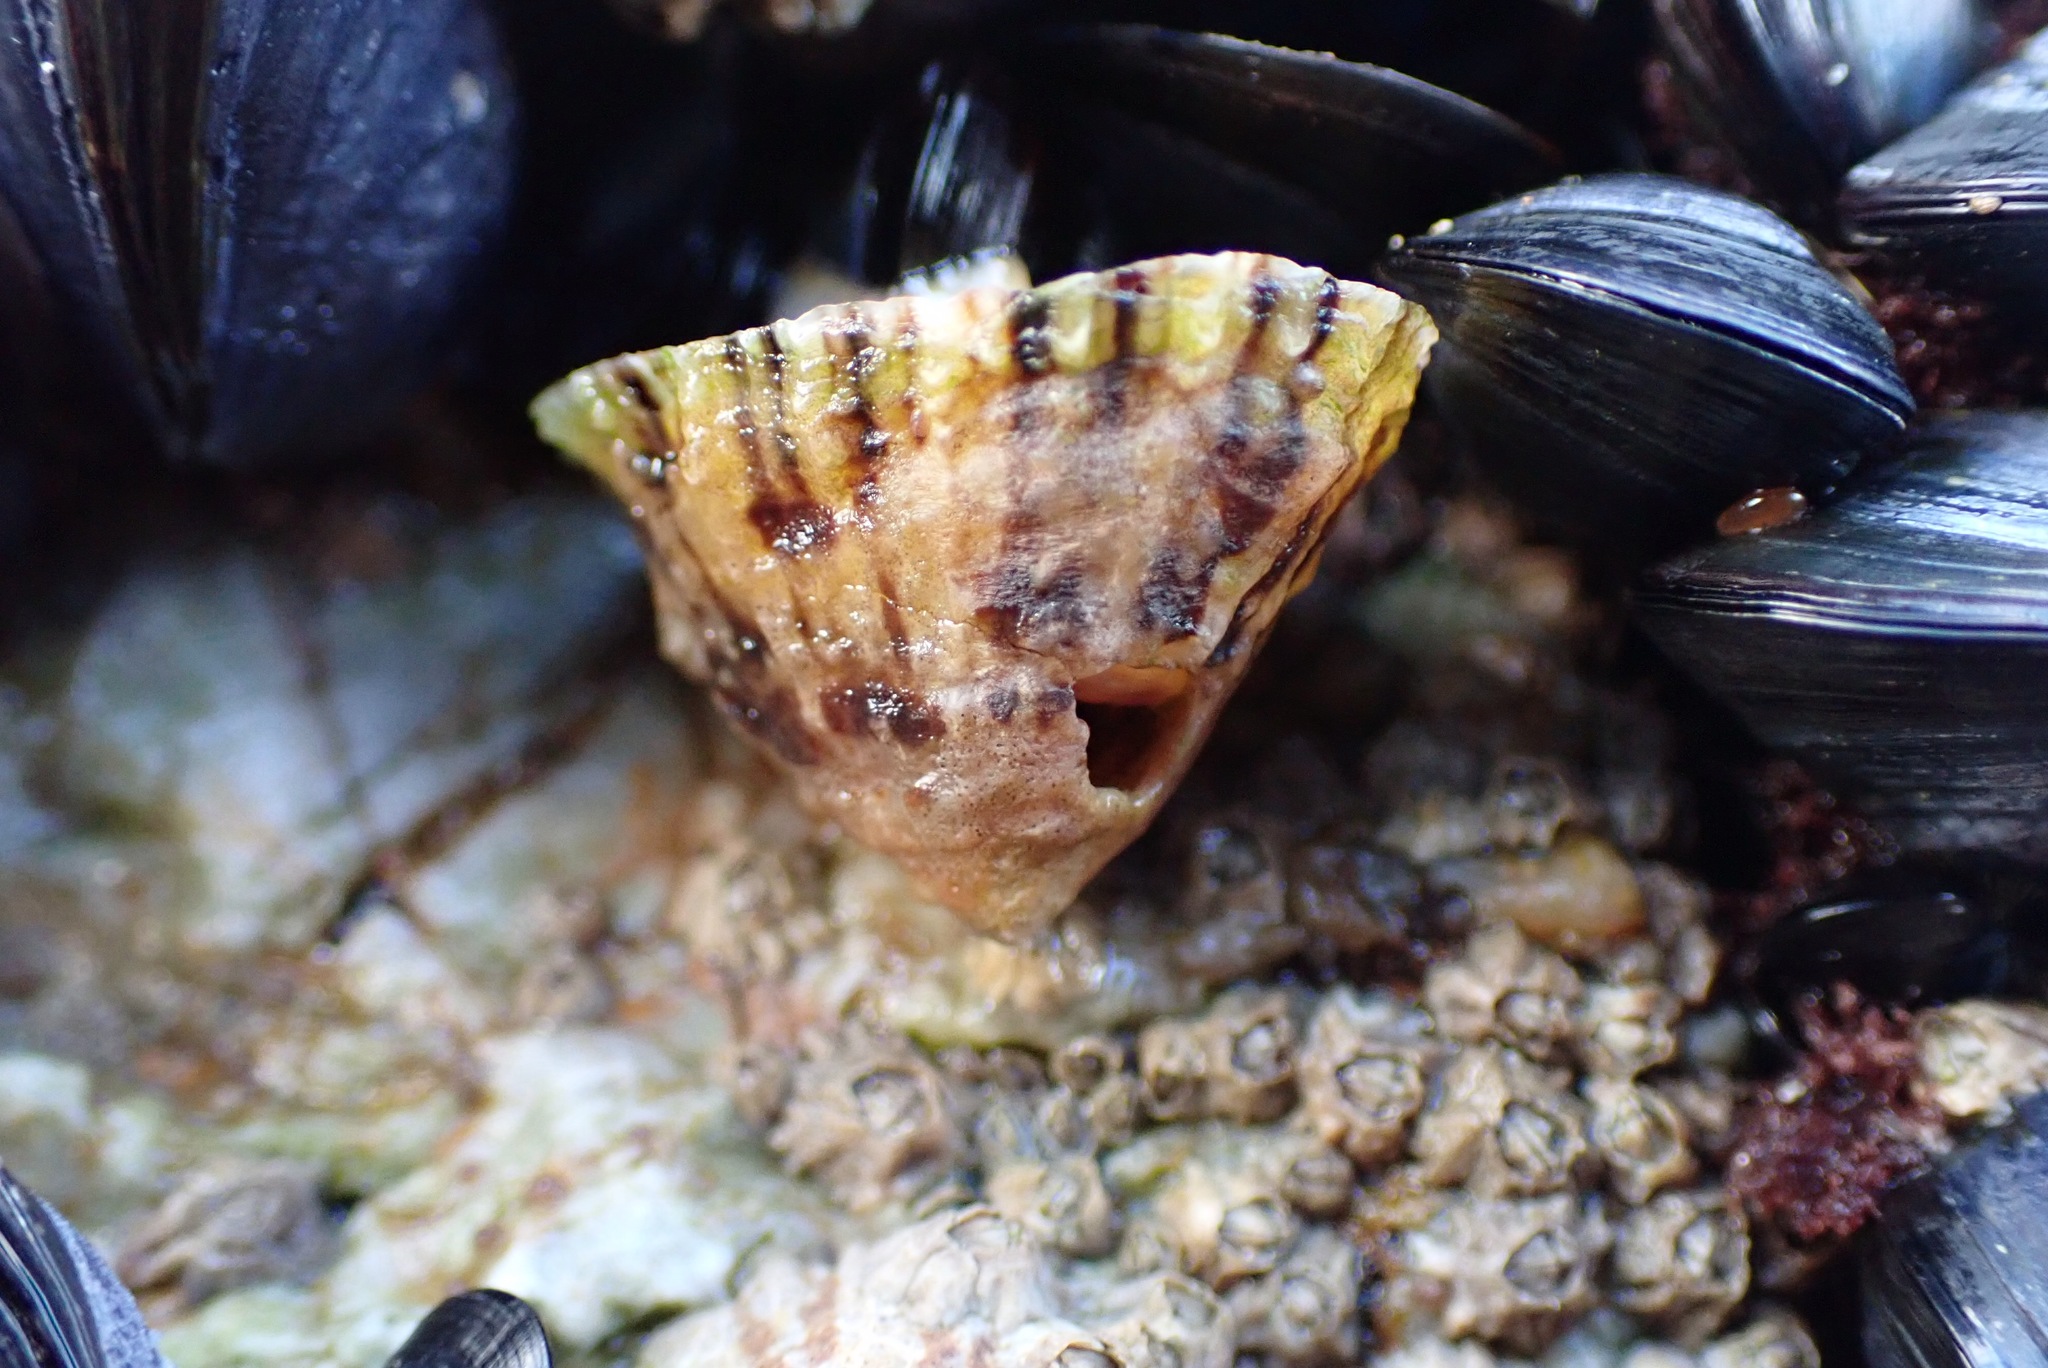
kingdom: Animalia
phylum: Mollusca
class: Gastropoda
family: Patellidae
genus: Patella
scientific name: Patella vulgata
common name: Common limpet
